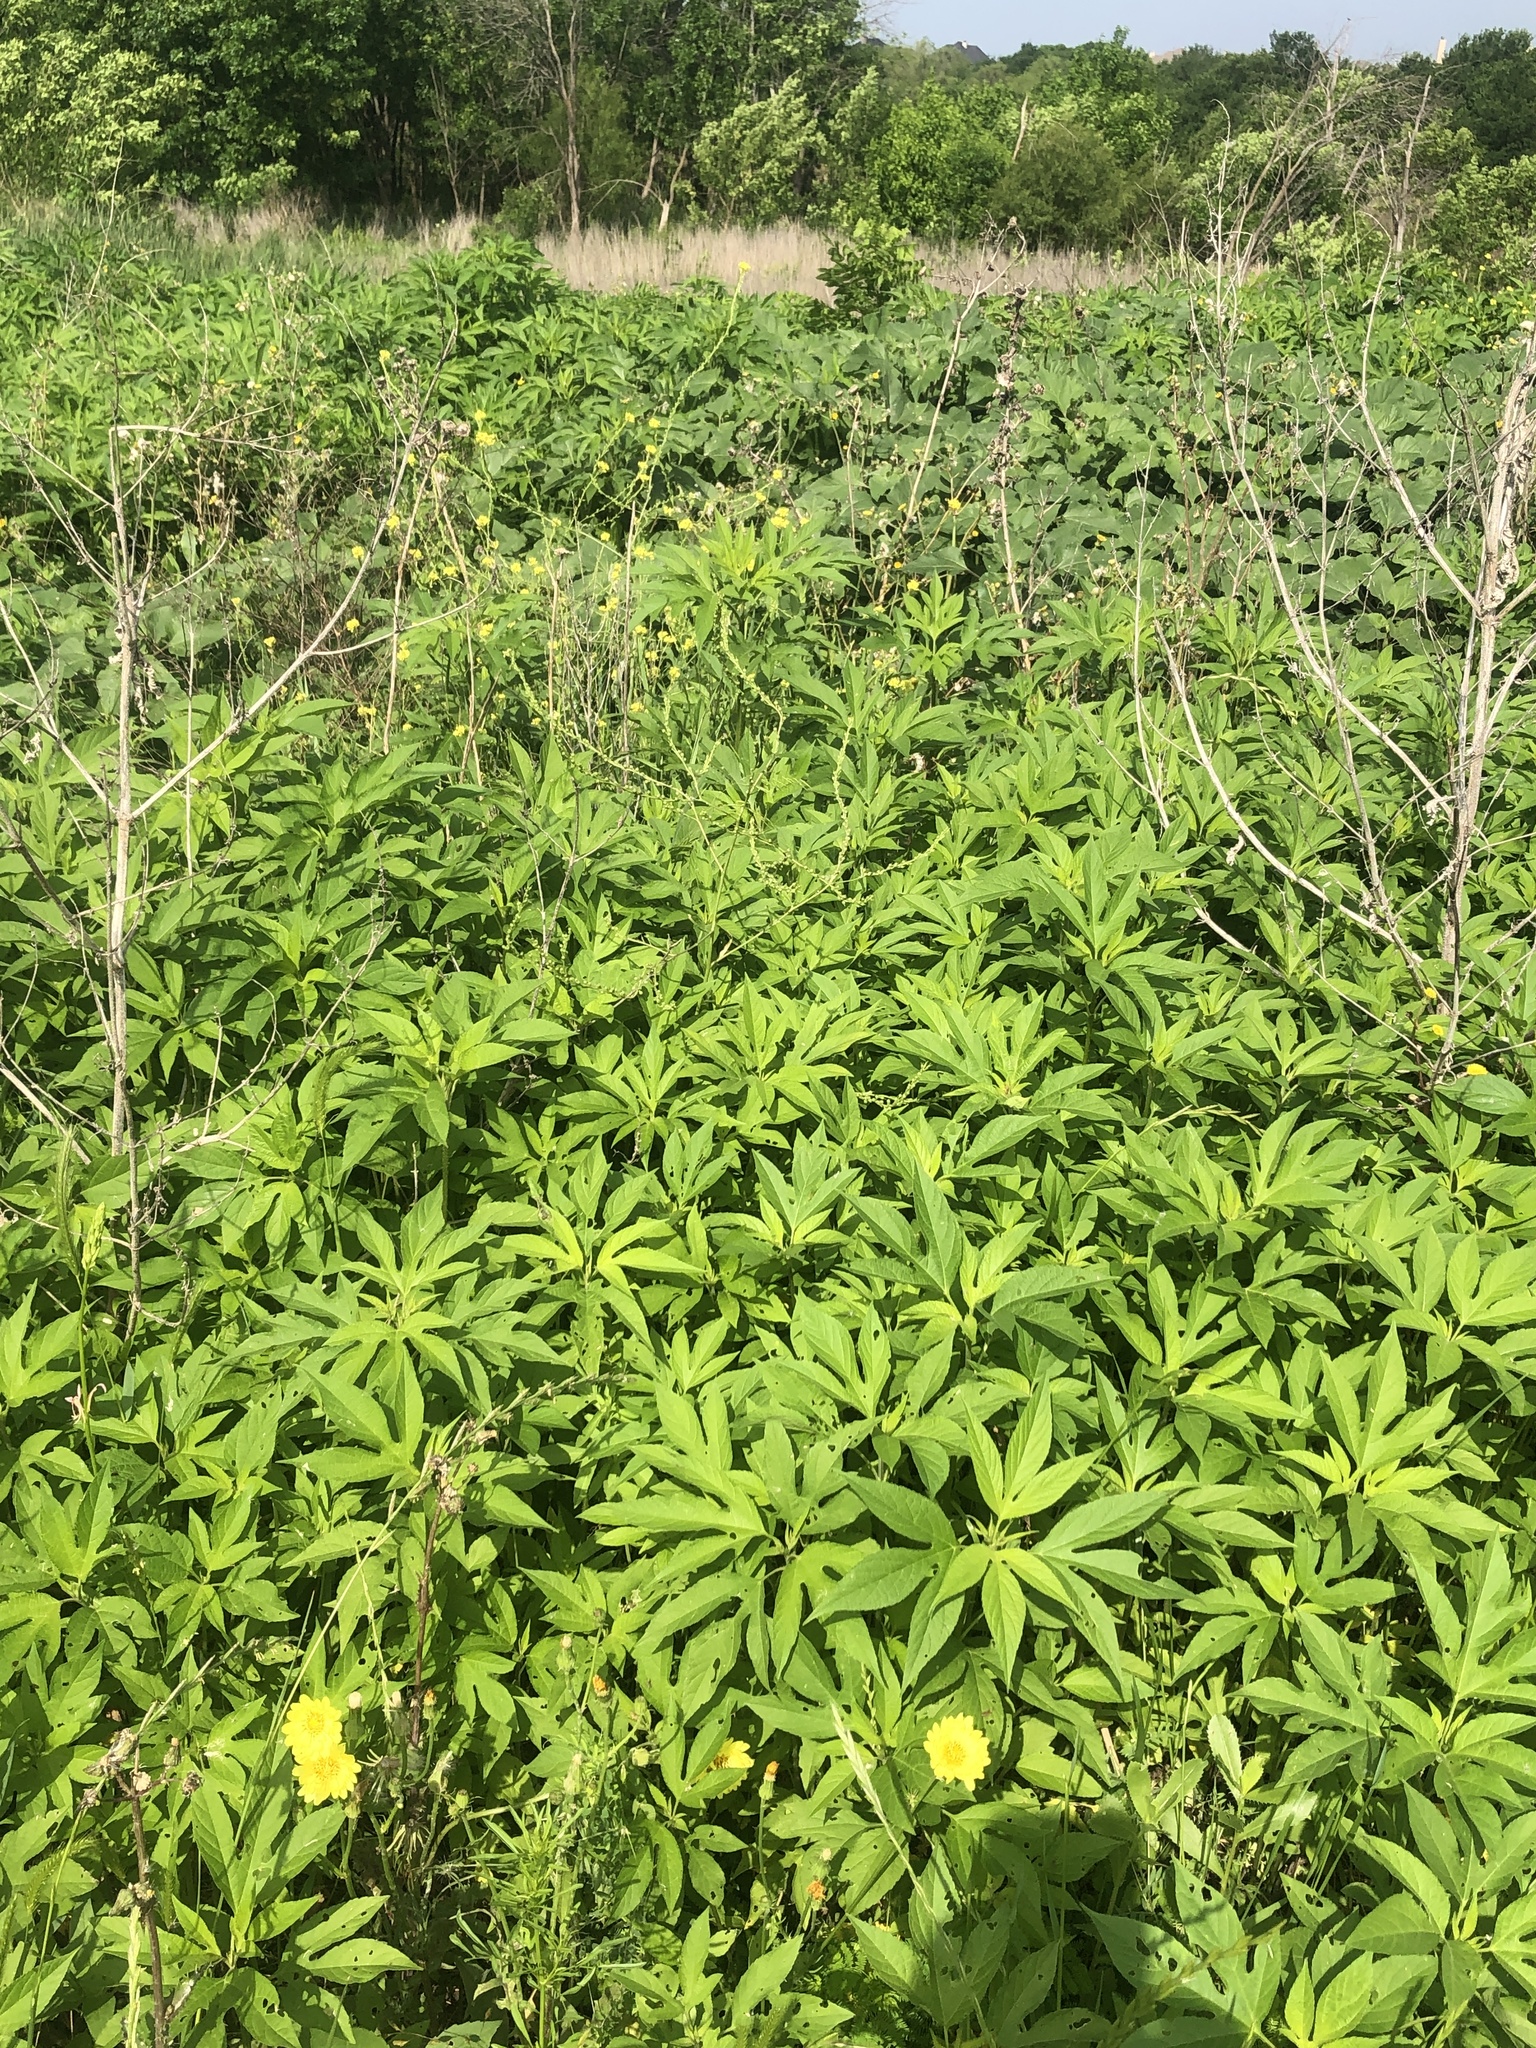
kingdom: Plantae
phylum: Tracheophyta
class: Magnoliopsida
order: Asterales
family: Asteraceae
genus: Ambrosia
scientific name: Ambrosia trifida
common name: Giant ragweed
